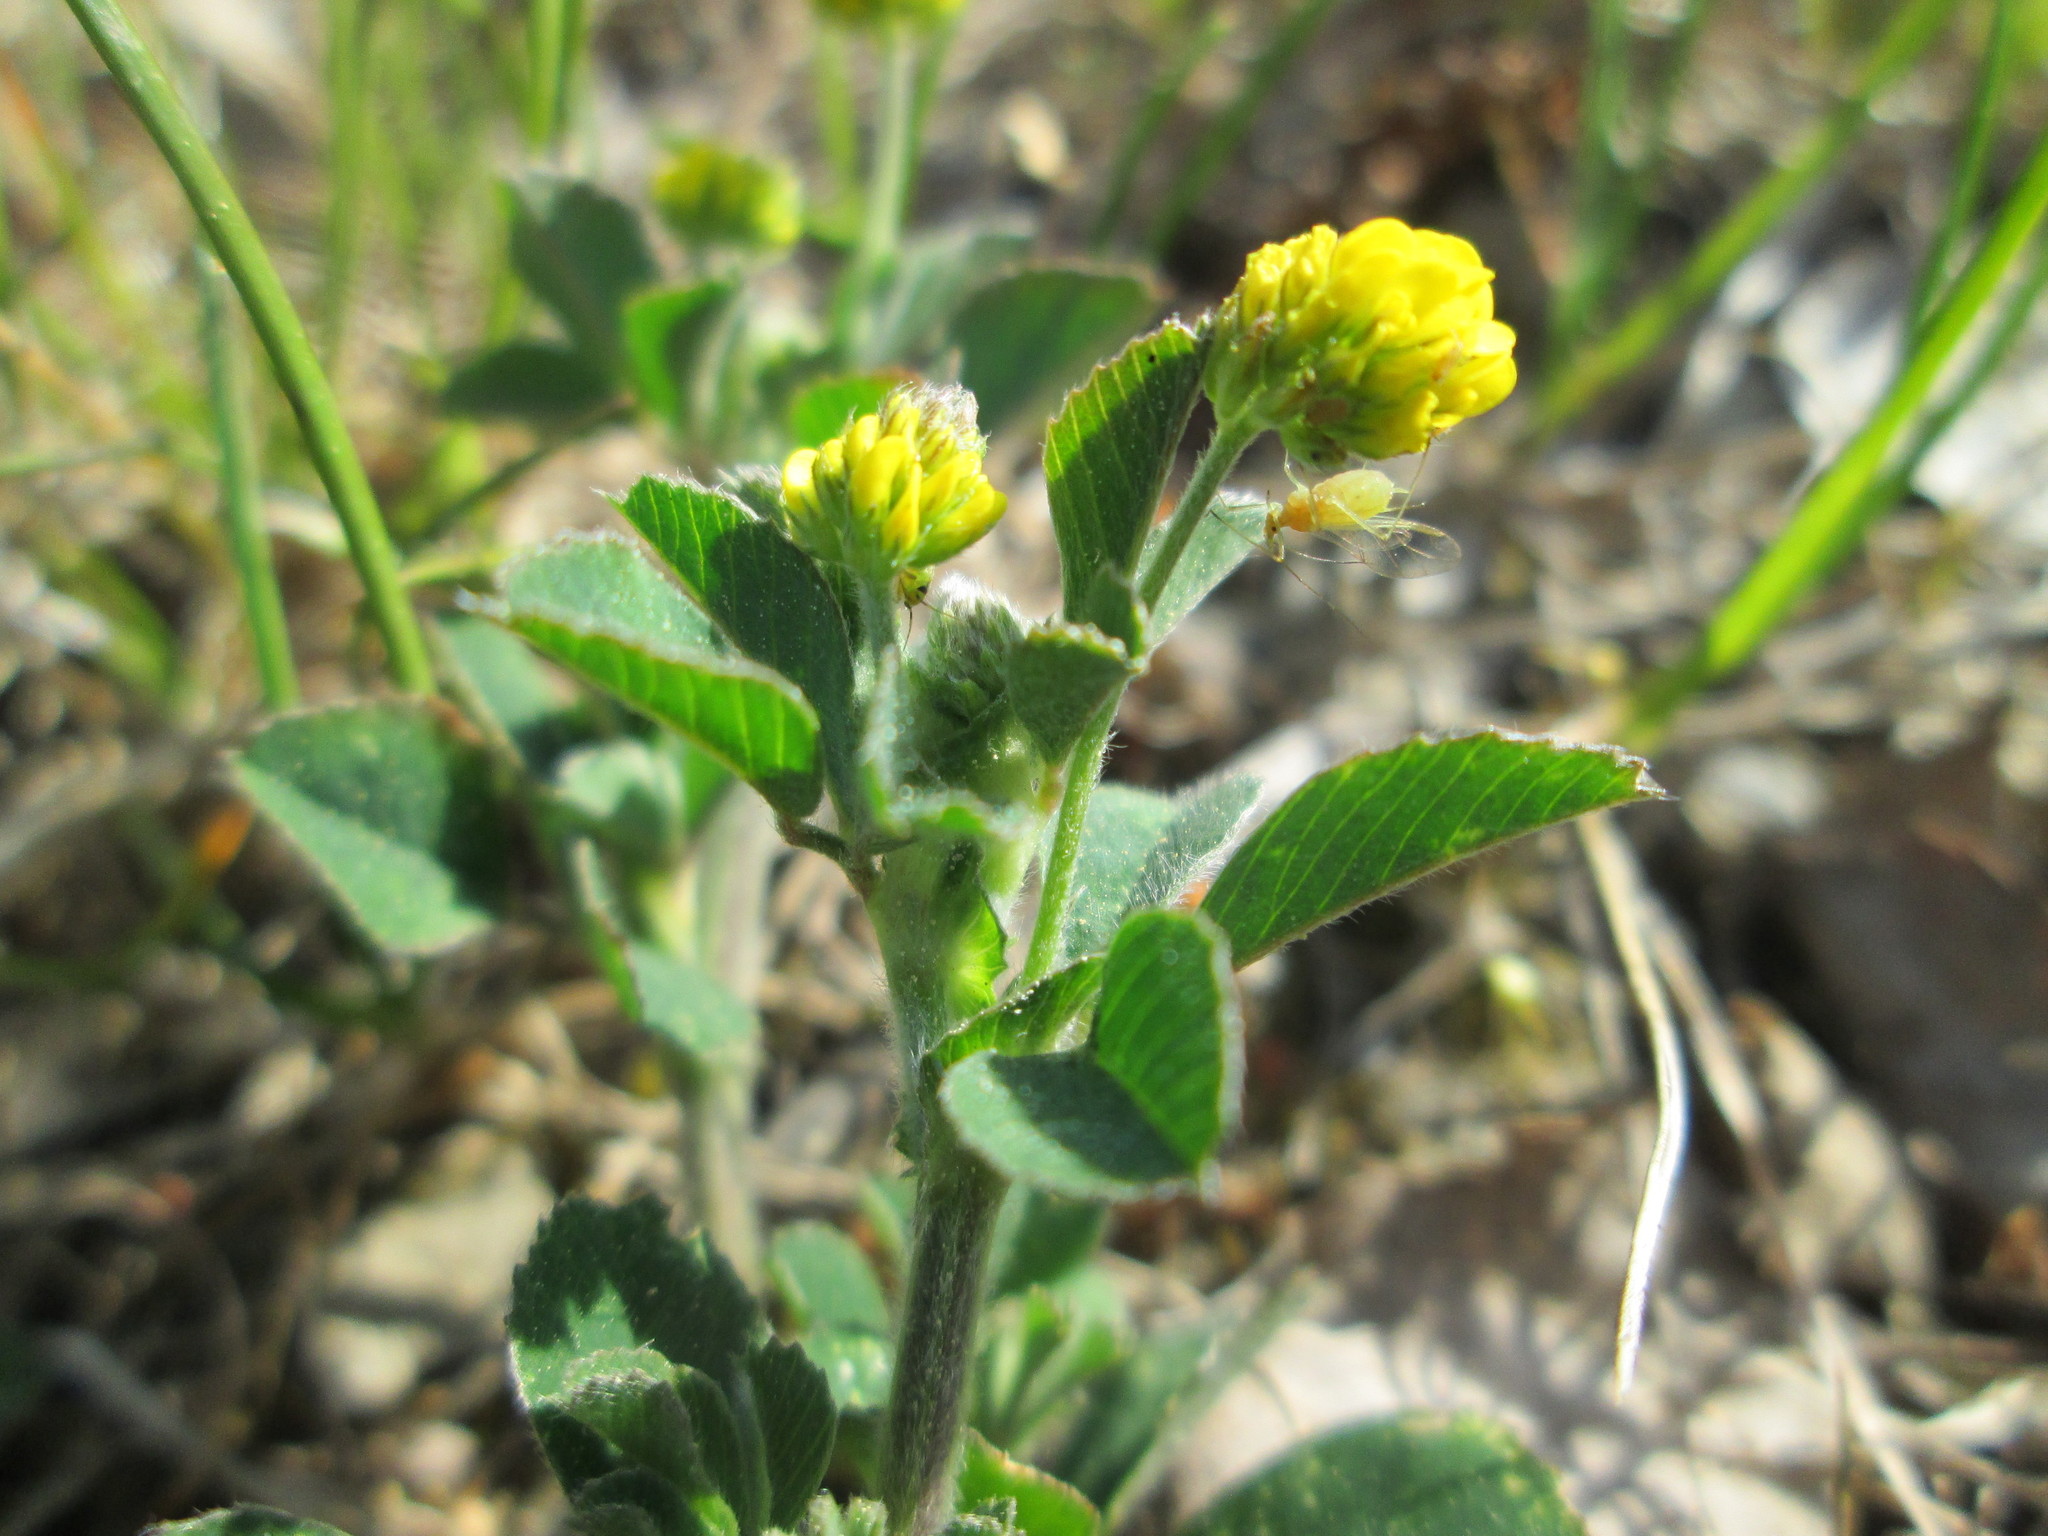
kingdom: Plantae
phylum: Tracheophyta
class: Magnoliopsida
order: Fabales
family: Fabaceae
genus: Medicago
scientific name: Medicago lupulina
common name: Black medick
